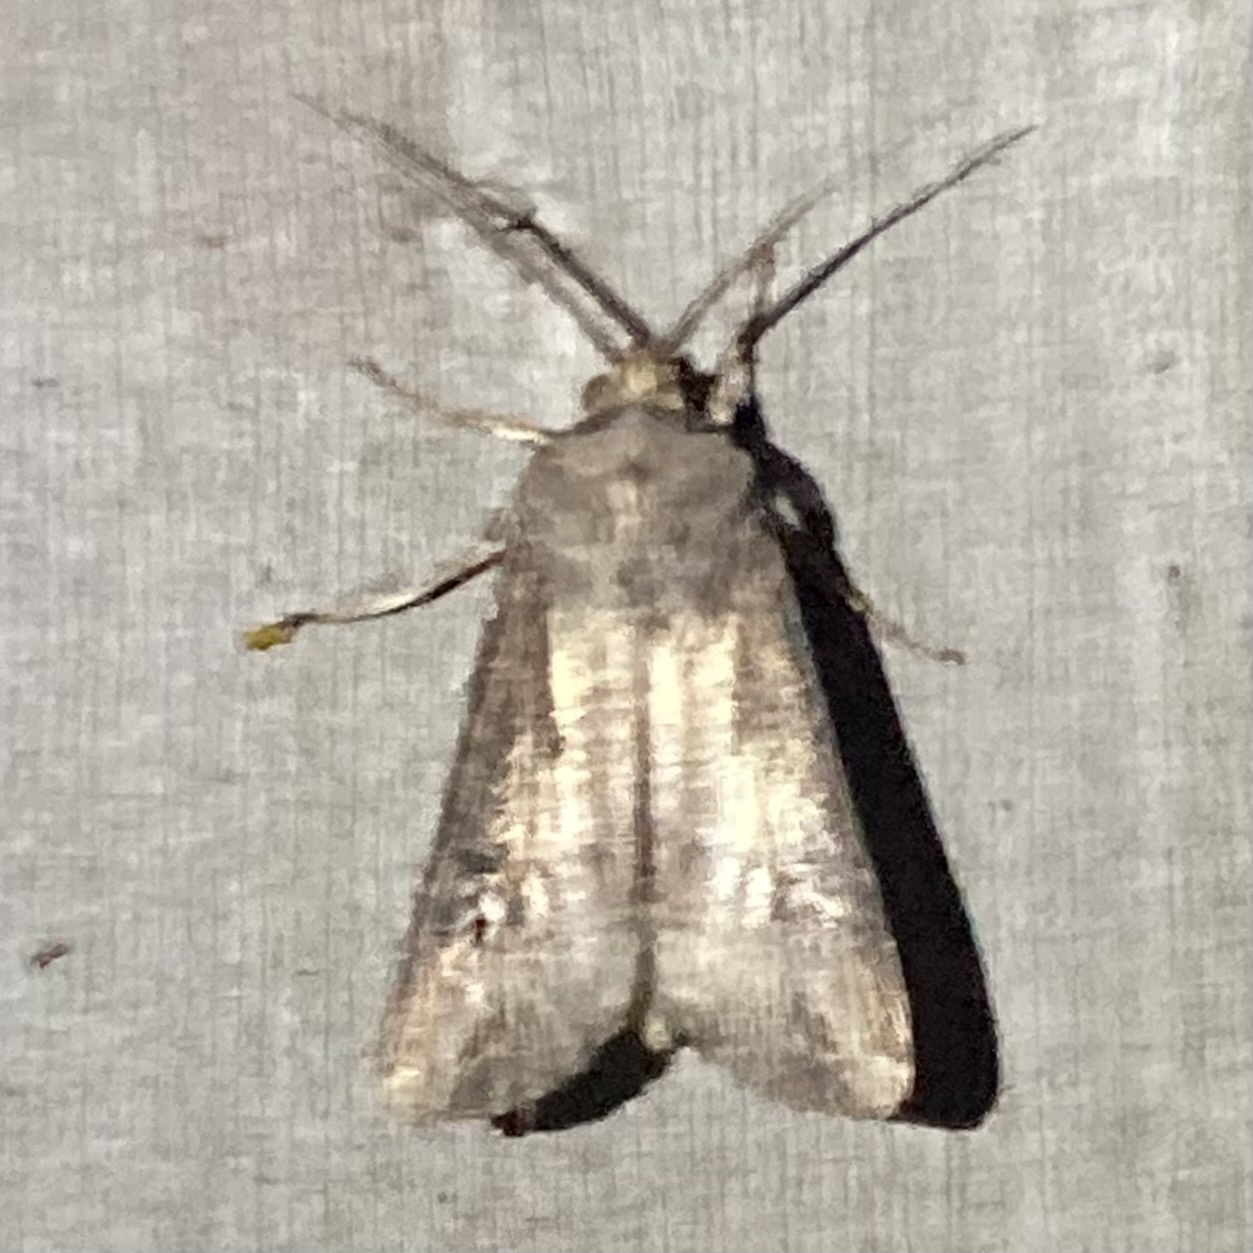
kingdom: Animalia
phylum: Arthropoda
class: Insecta
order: Lepidoptera
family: Noctuidae
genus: Agrotis
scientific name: Agrotis ipsilon
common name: Dark sword-grass
